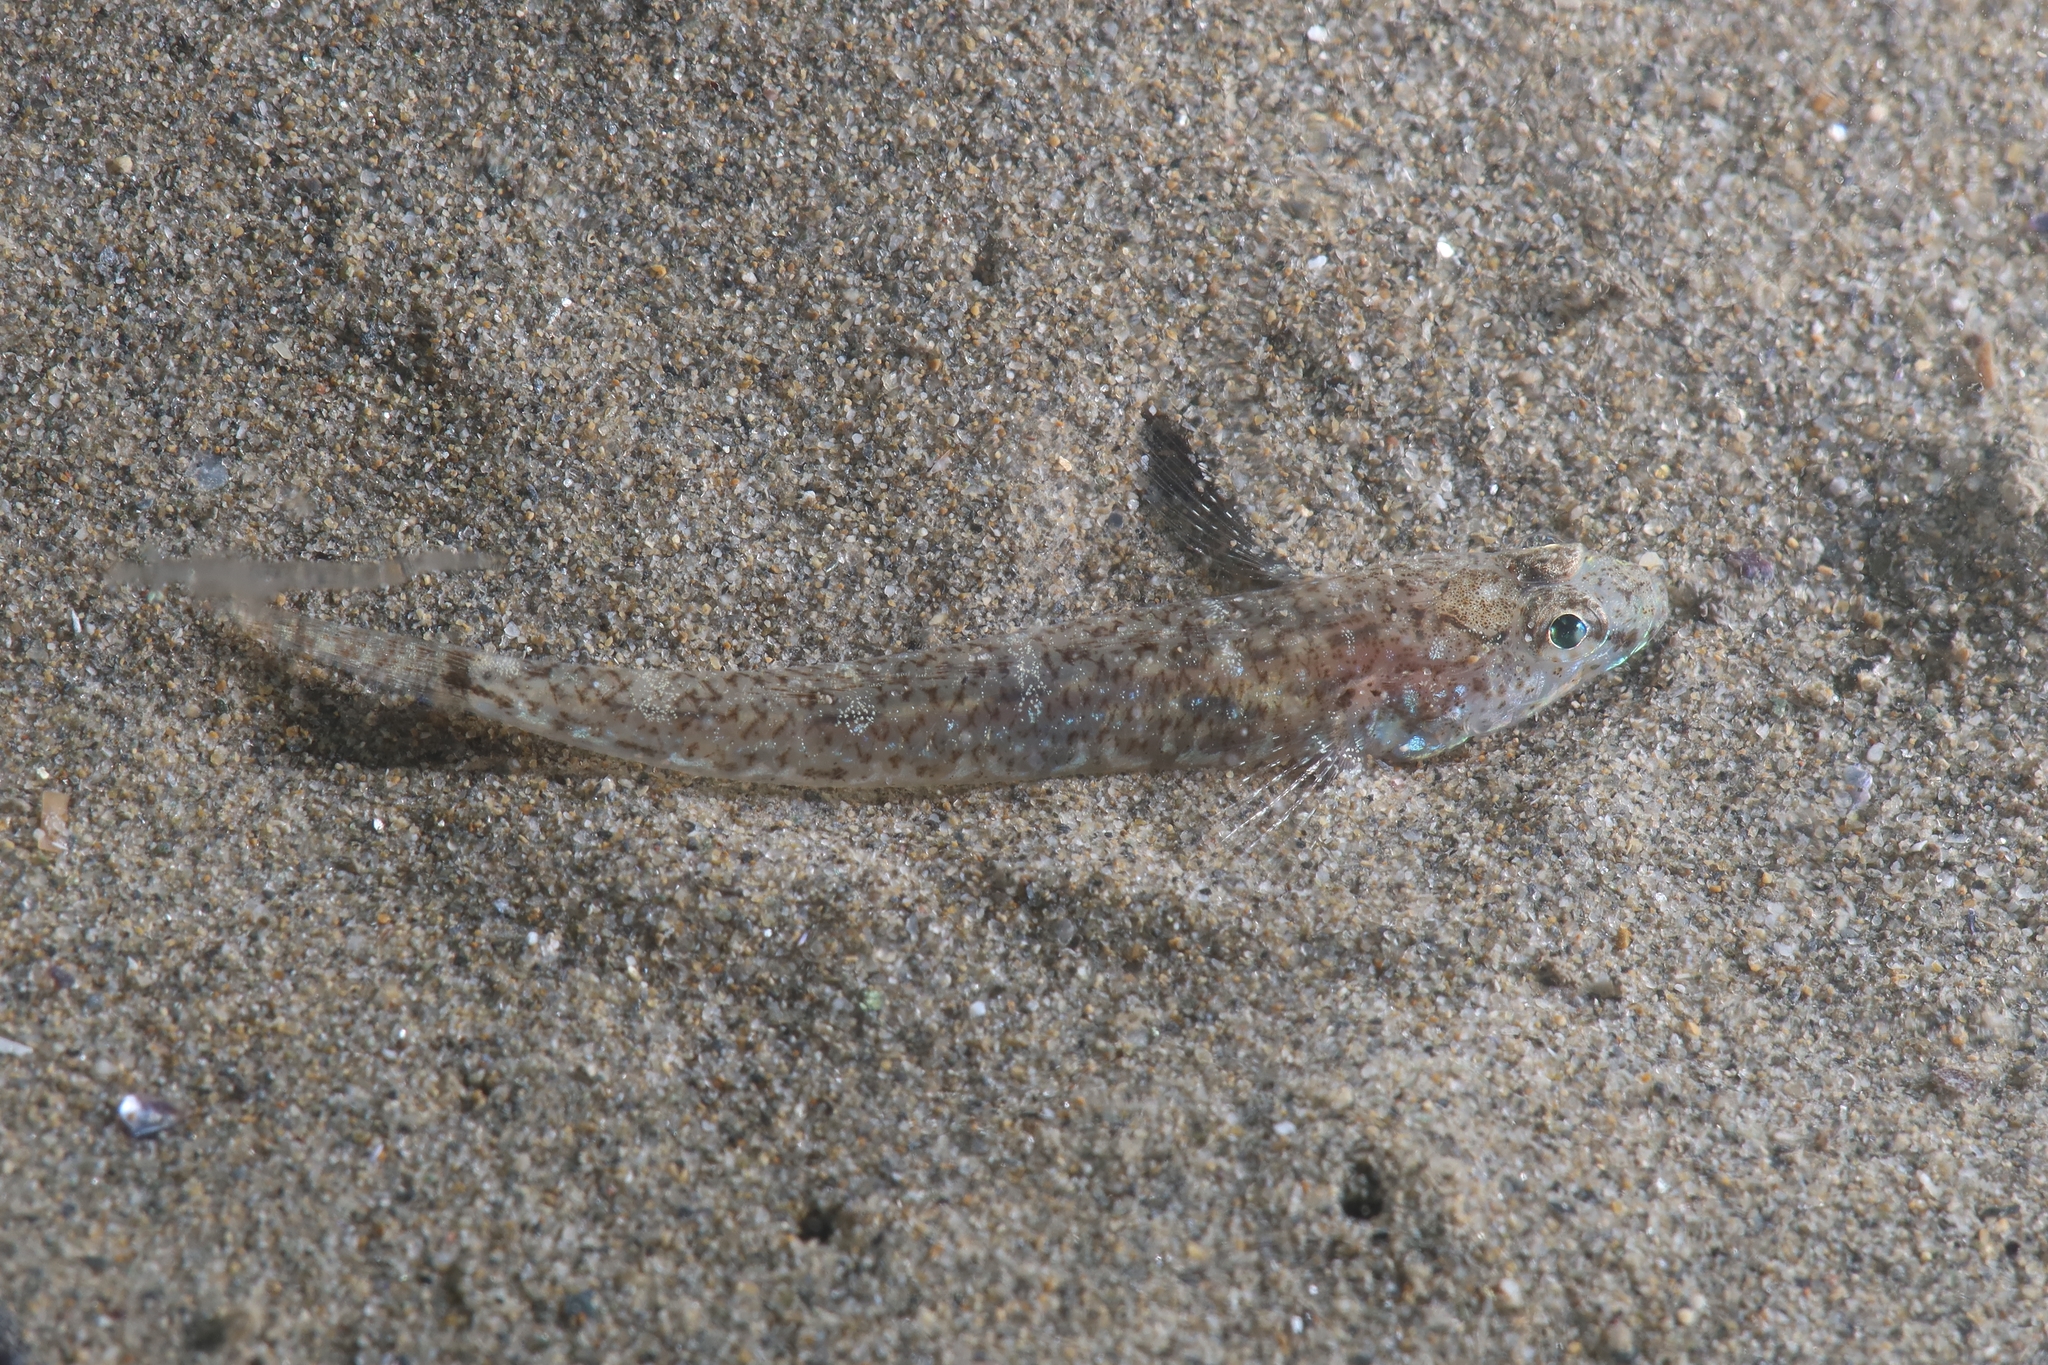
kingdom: Animalia
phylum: Chordata
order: Perciformes
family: Gobiidae
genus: Pomatoschistus
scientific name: Pomatoschistus marmoratus
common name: Marbled goby
